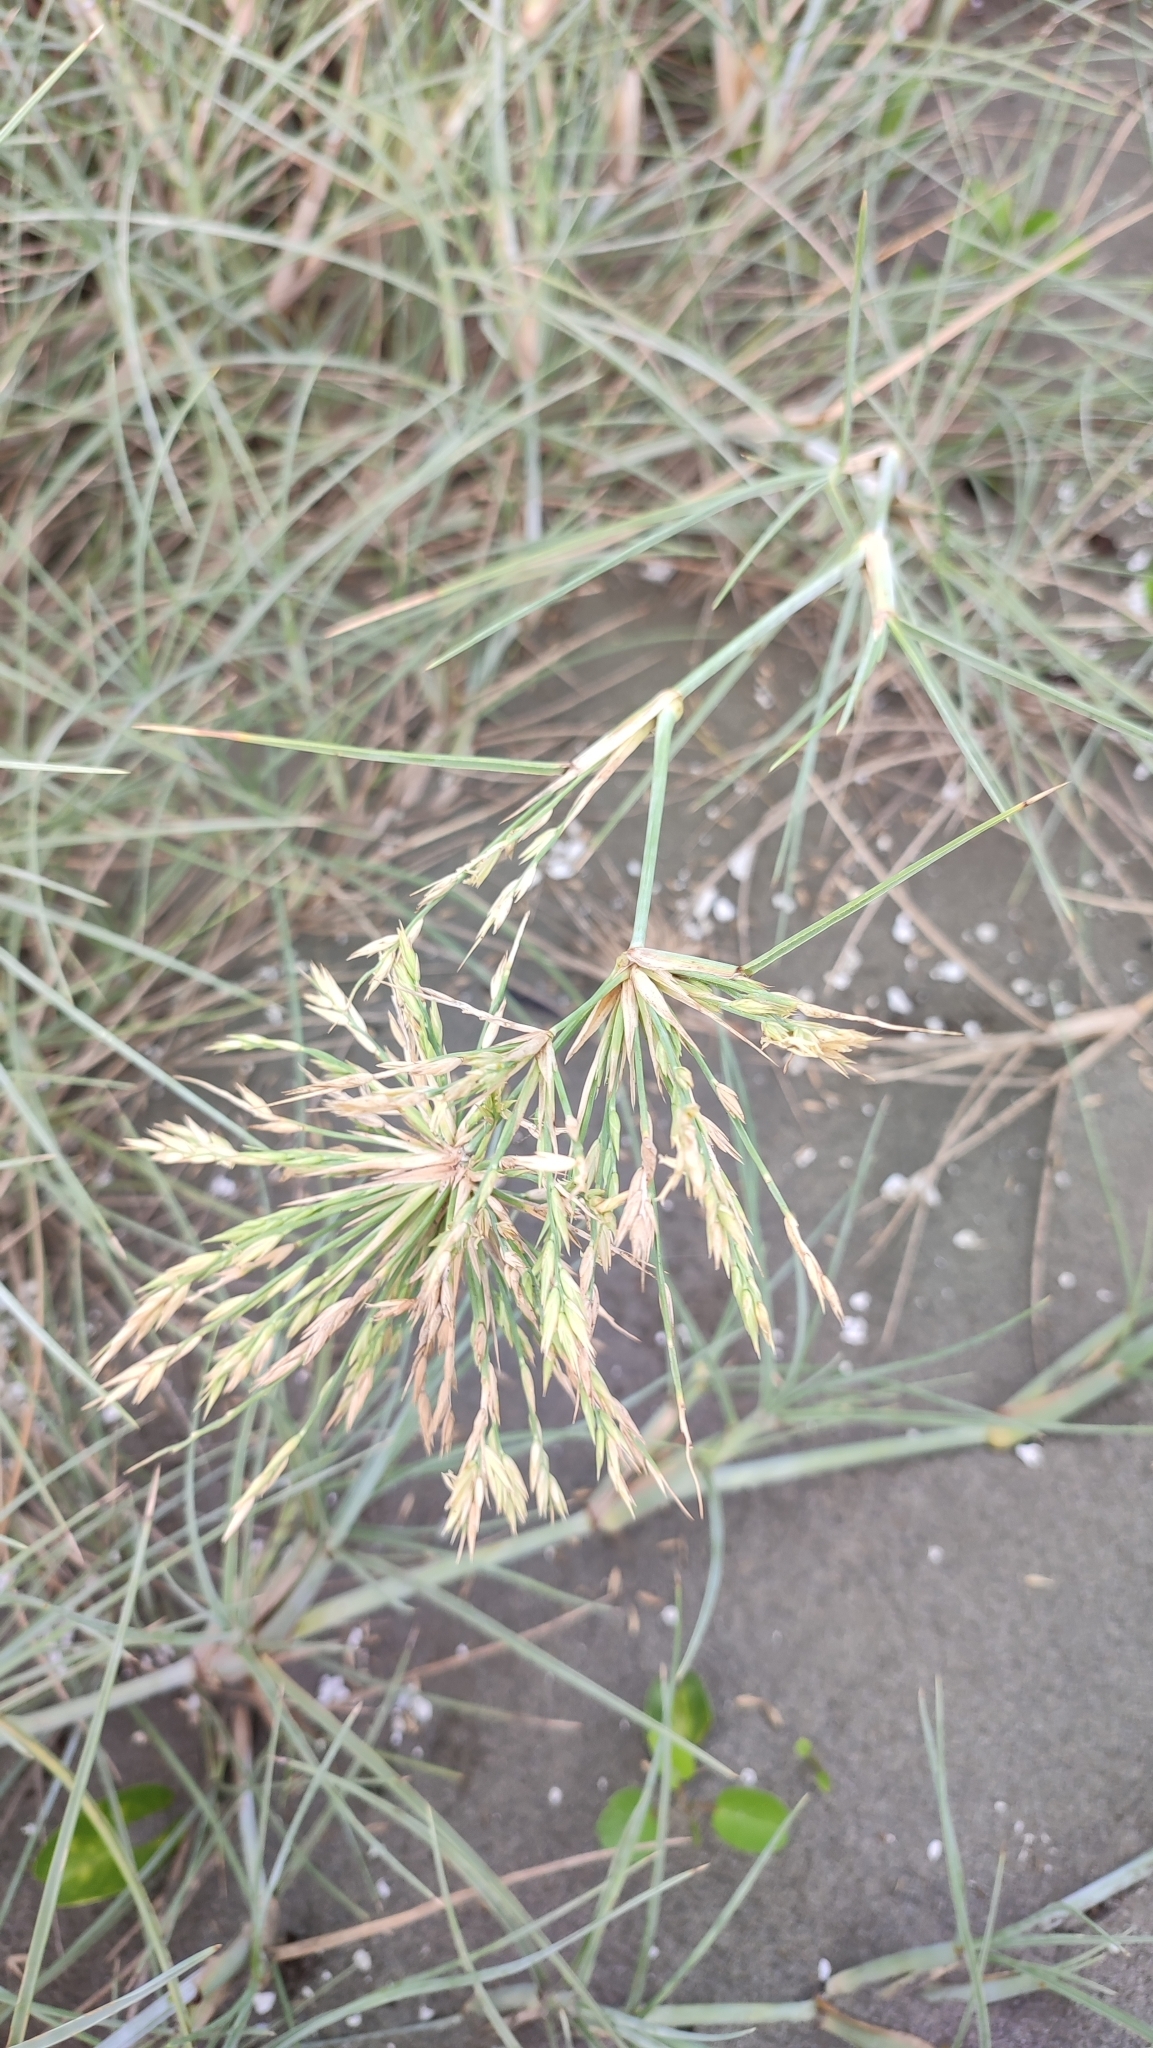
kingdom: Plantae
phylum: Tracheophyta
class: Liliopsida
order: Poales
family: Poaceae
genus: Spinifex
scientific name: Spinifex littoreus
